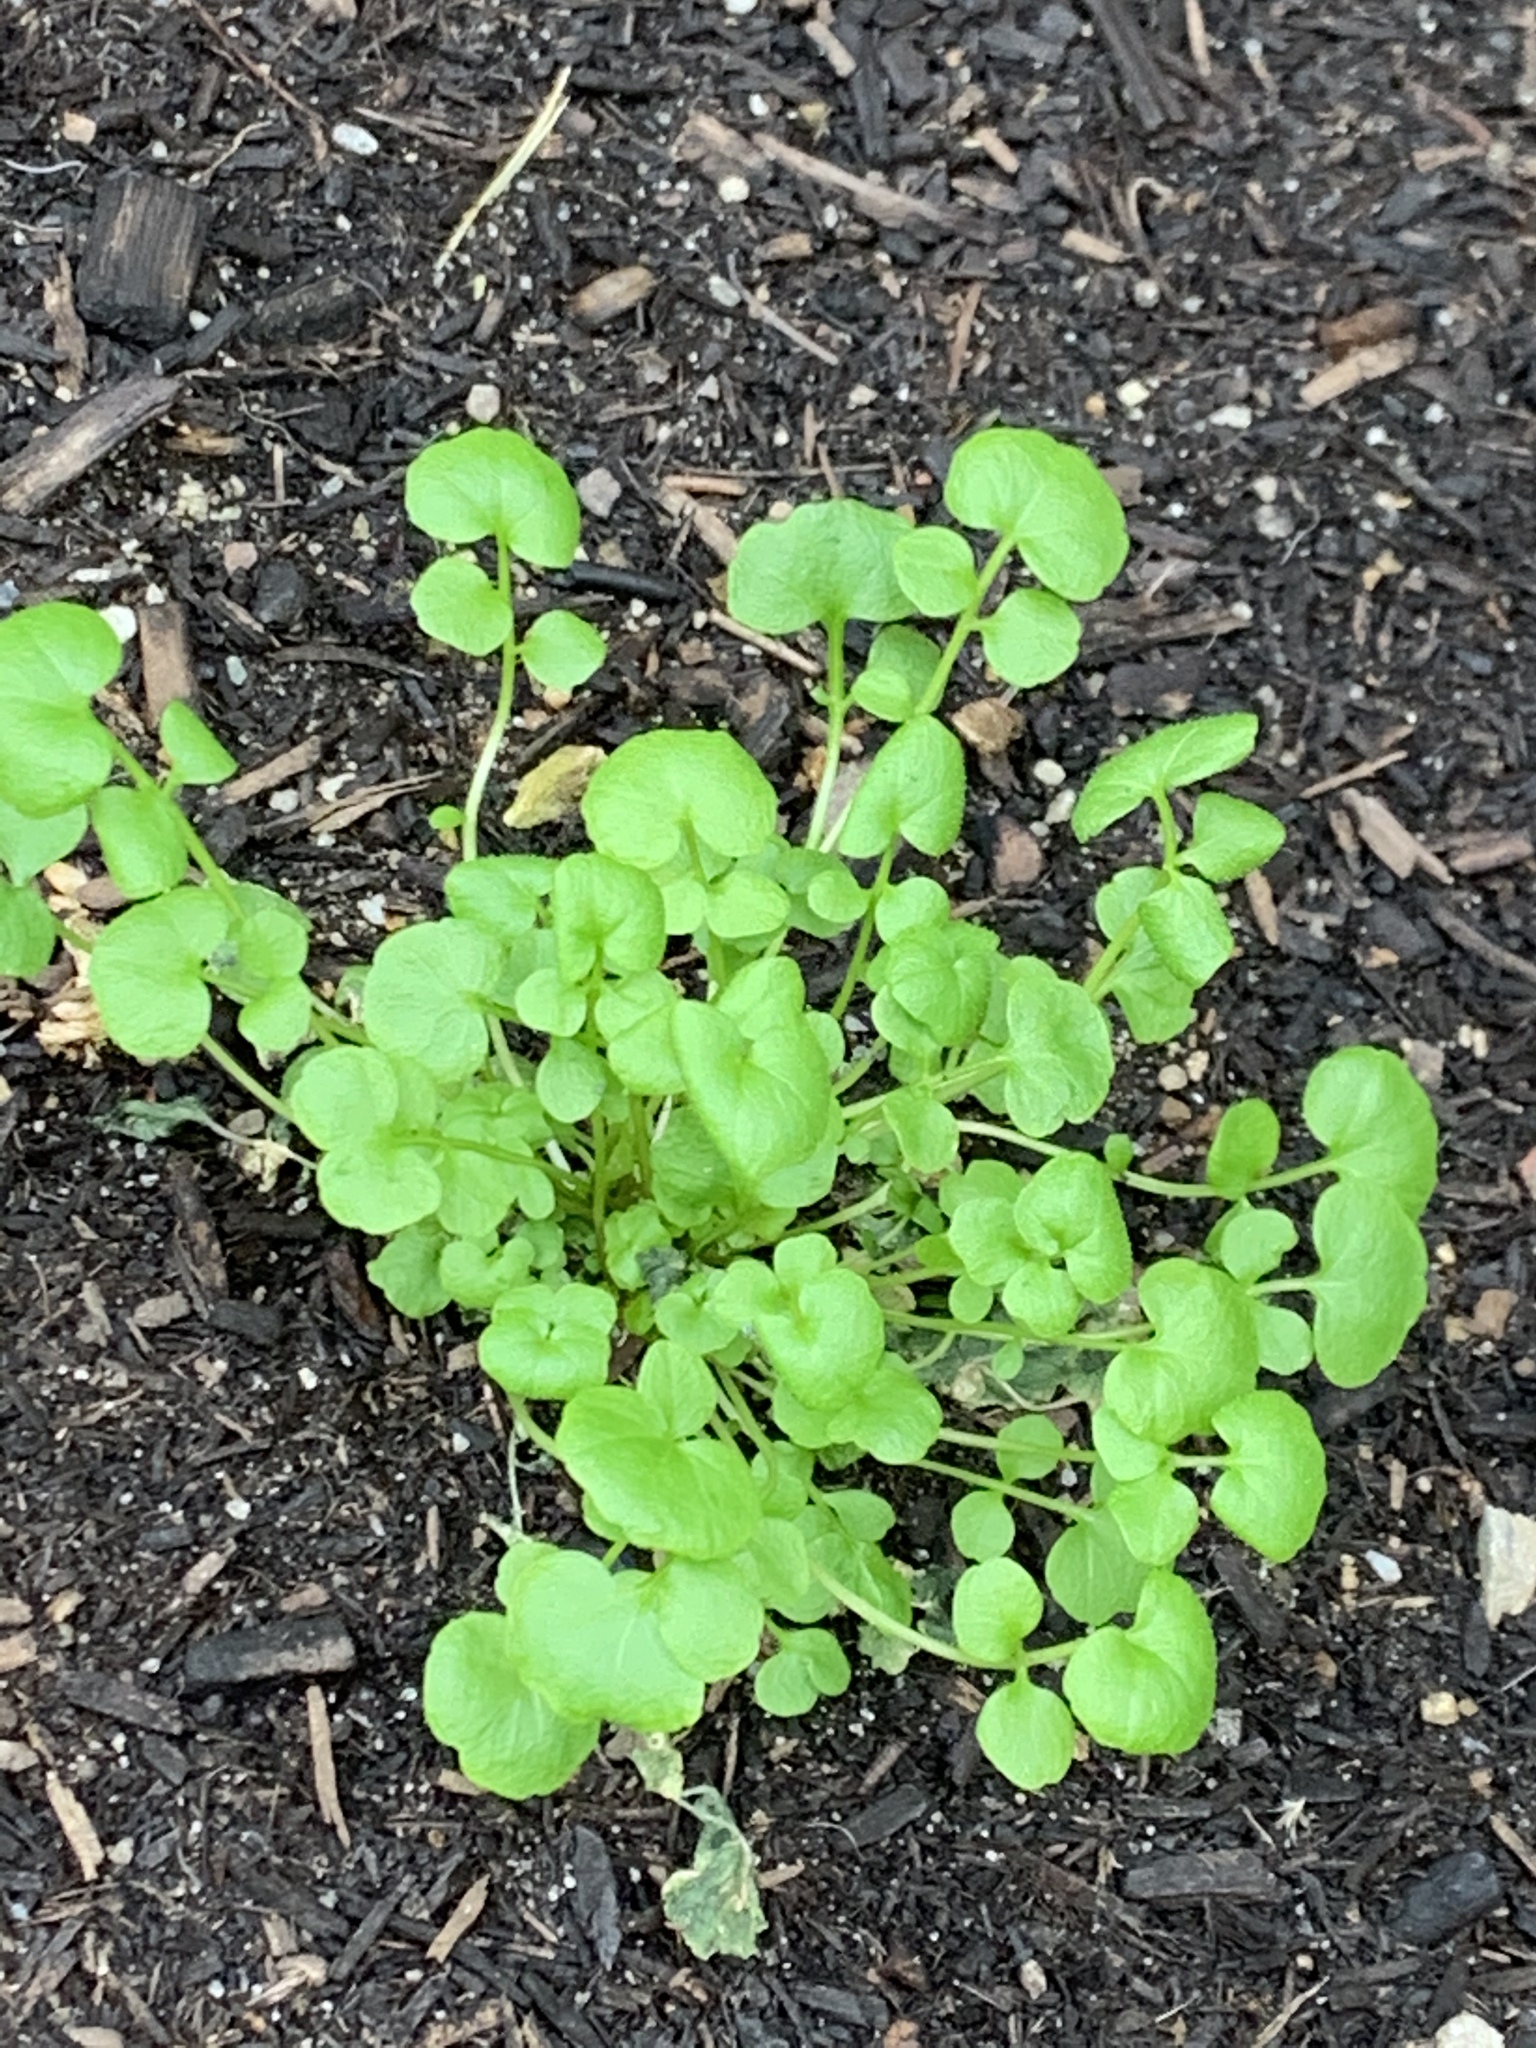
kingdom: Plantae
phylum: Tracheophyta
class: Magnoliopsida
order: Brassicales
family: Brassicaceae
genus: Cardamine
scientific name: Cardamine hirsuta
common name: Hairy bittercress
